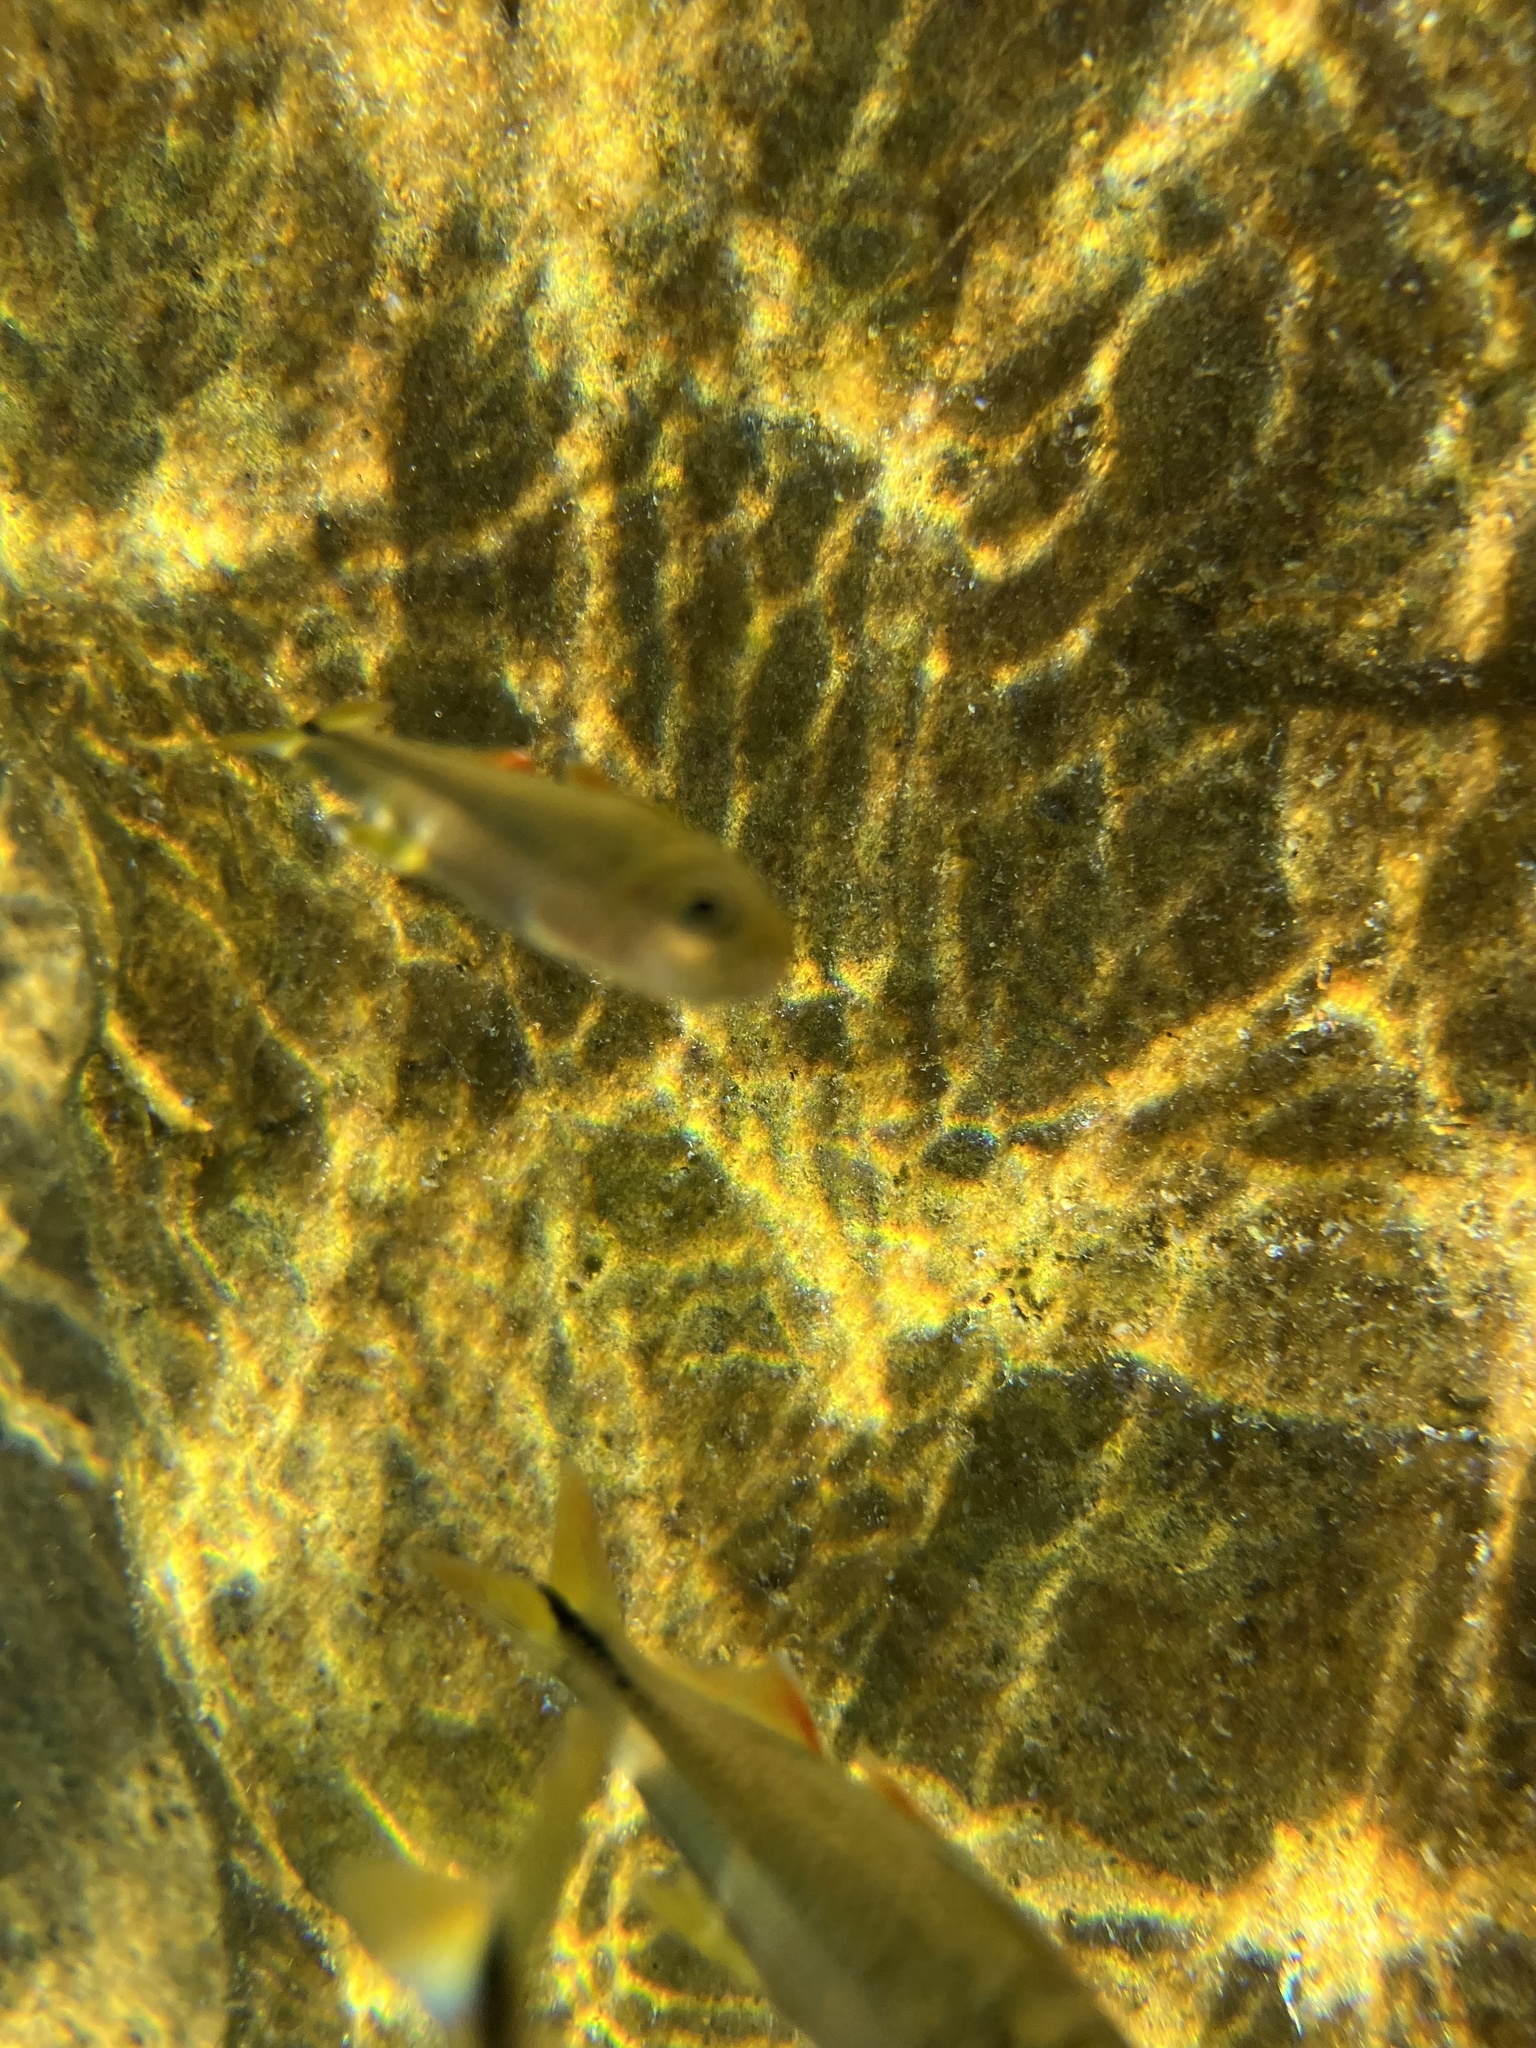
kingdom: Animalia
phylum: Chordata
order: Characiformes
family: Characidae
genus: Astyanax
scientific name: Astyanax mexicanus
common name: Mexican tetra
